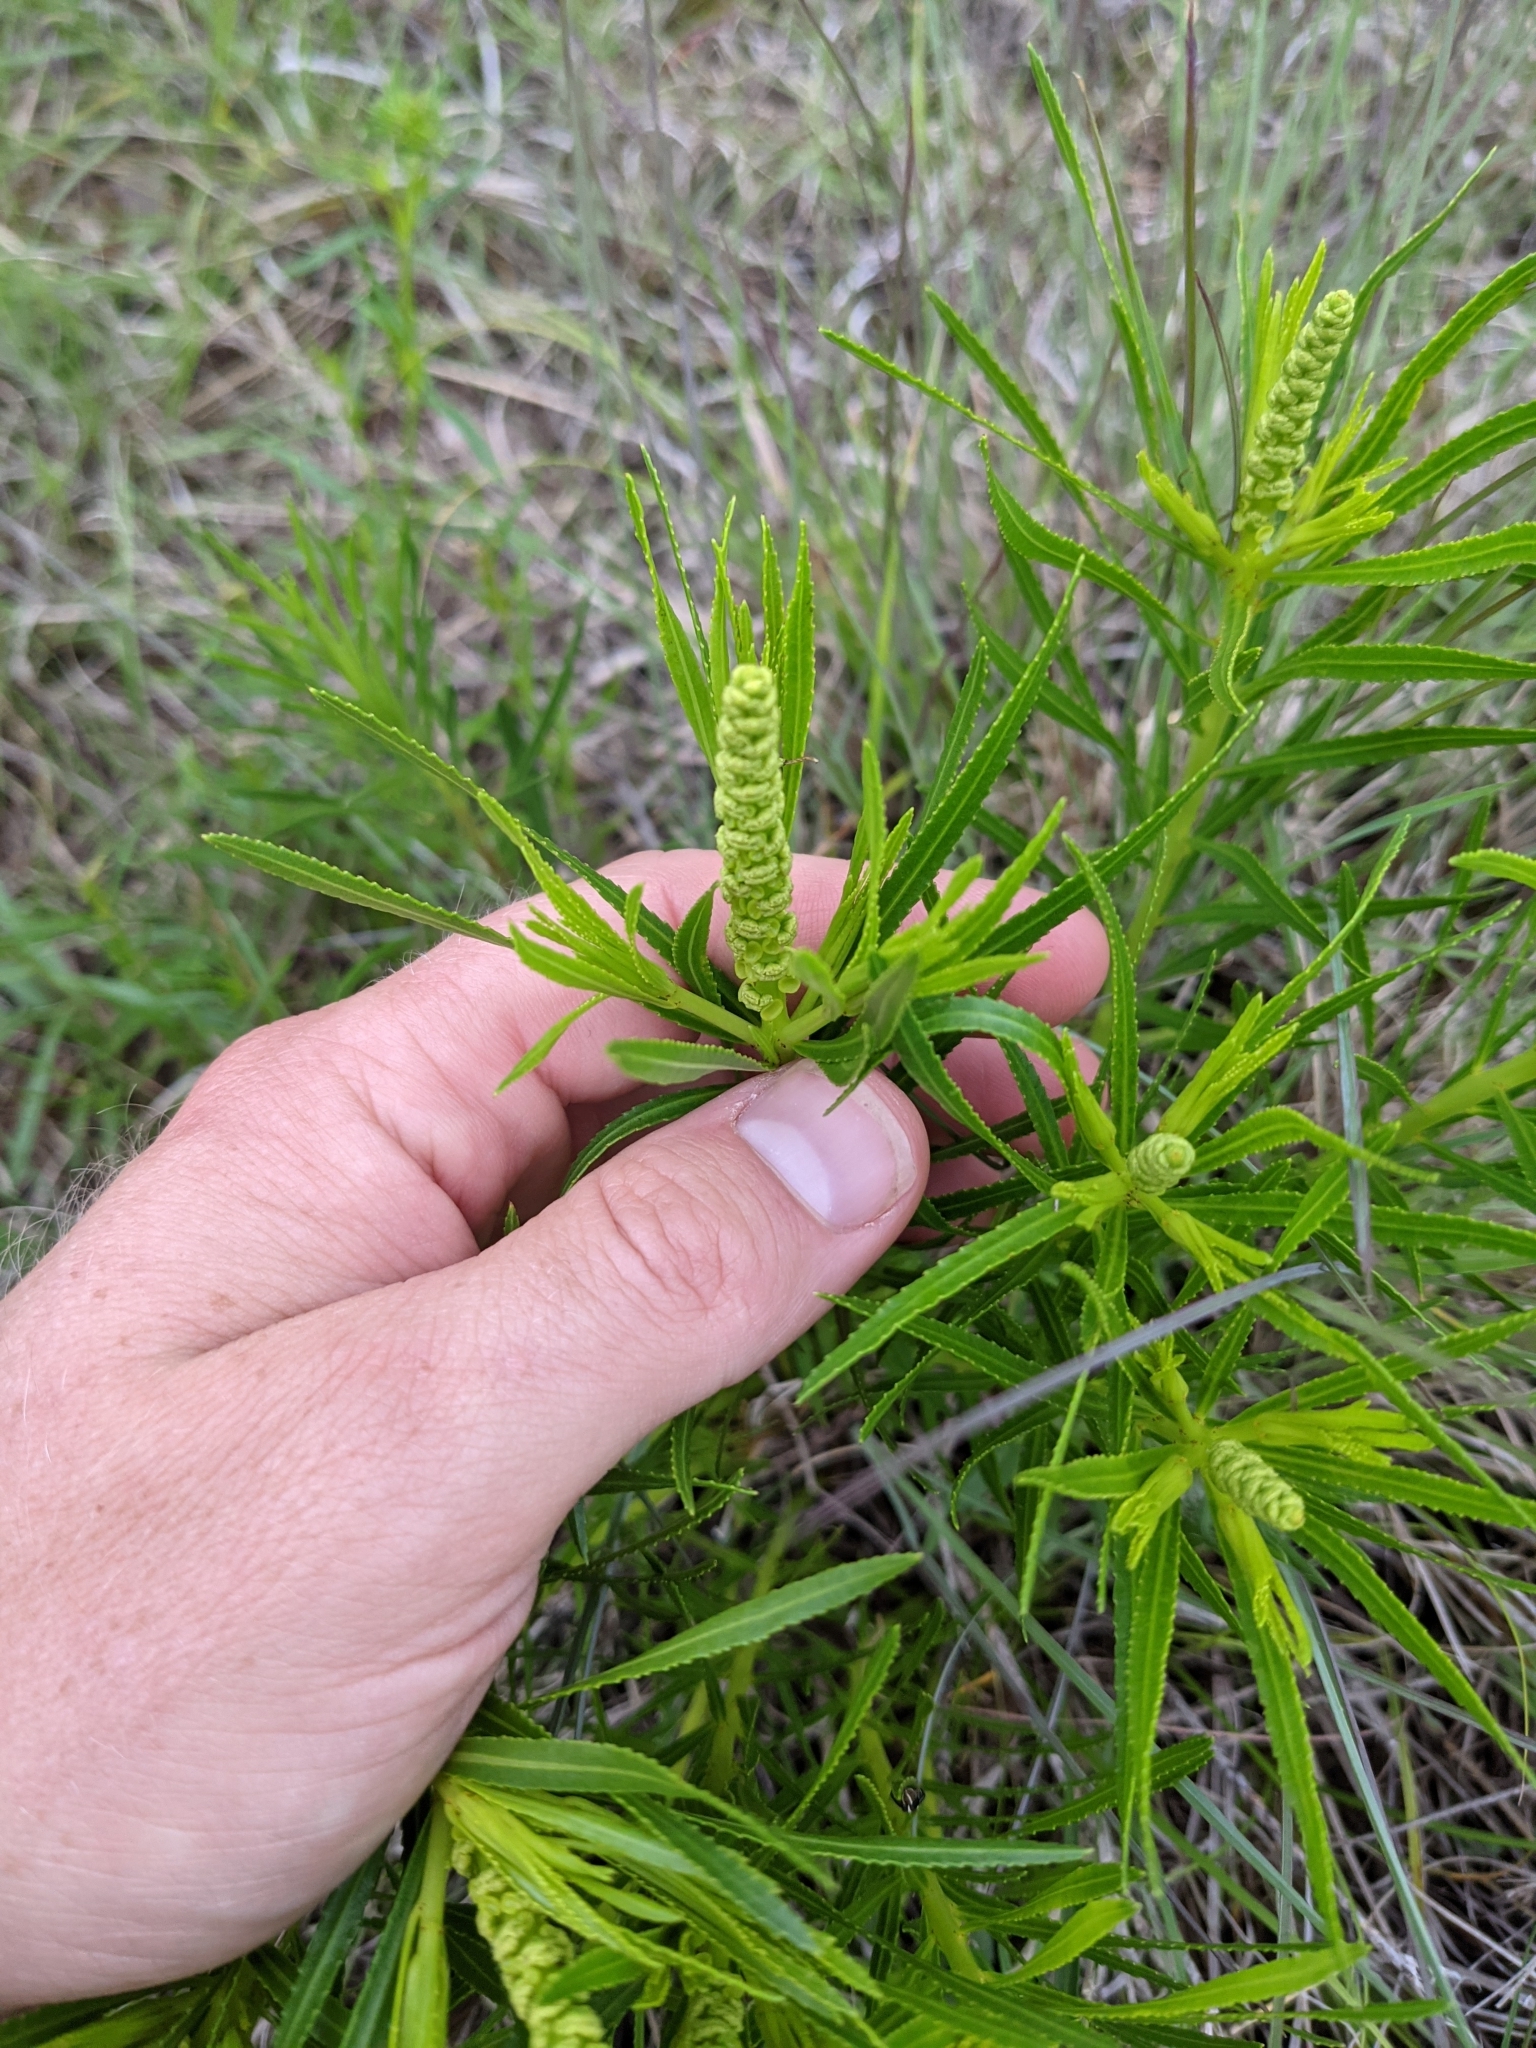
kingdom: Plantae
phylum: Tracheophyta
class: Magnoliopsida
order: Malpighiales
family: Euphorbiaceae
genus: Stillingia
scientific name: Stillingia texana
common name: Texas stillingia
